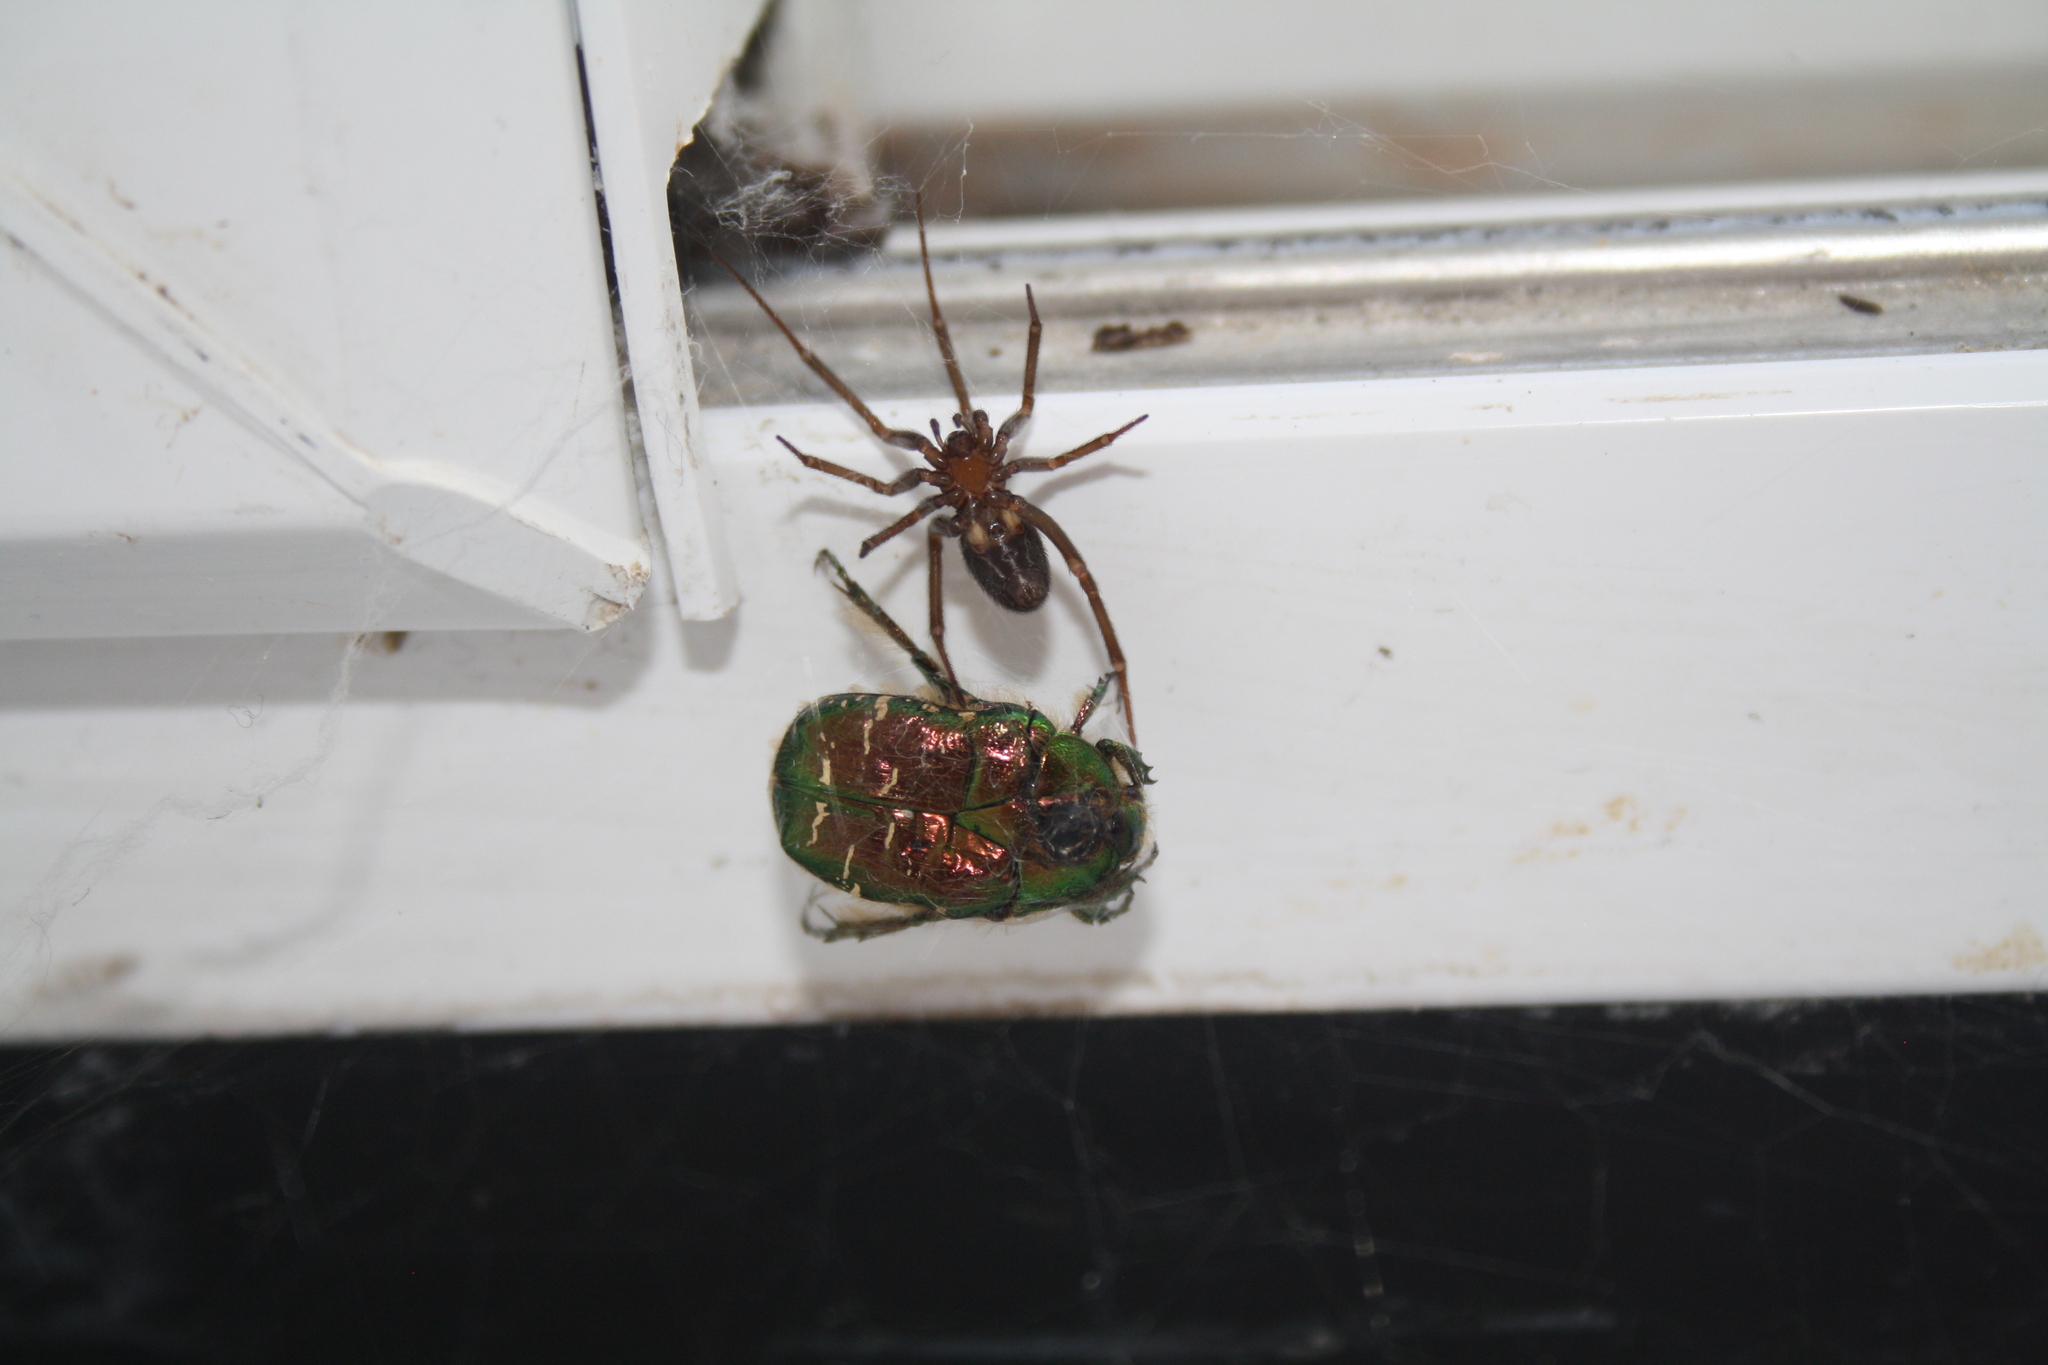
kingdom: Animalia
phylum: Arthropoda
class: Insecta
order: Coleoptera
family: Scarabaeidae
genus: Cetonia
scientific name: Cetonia aurata
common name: Rose chafer
